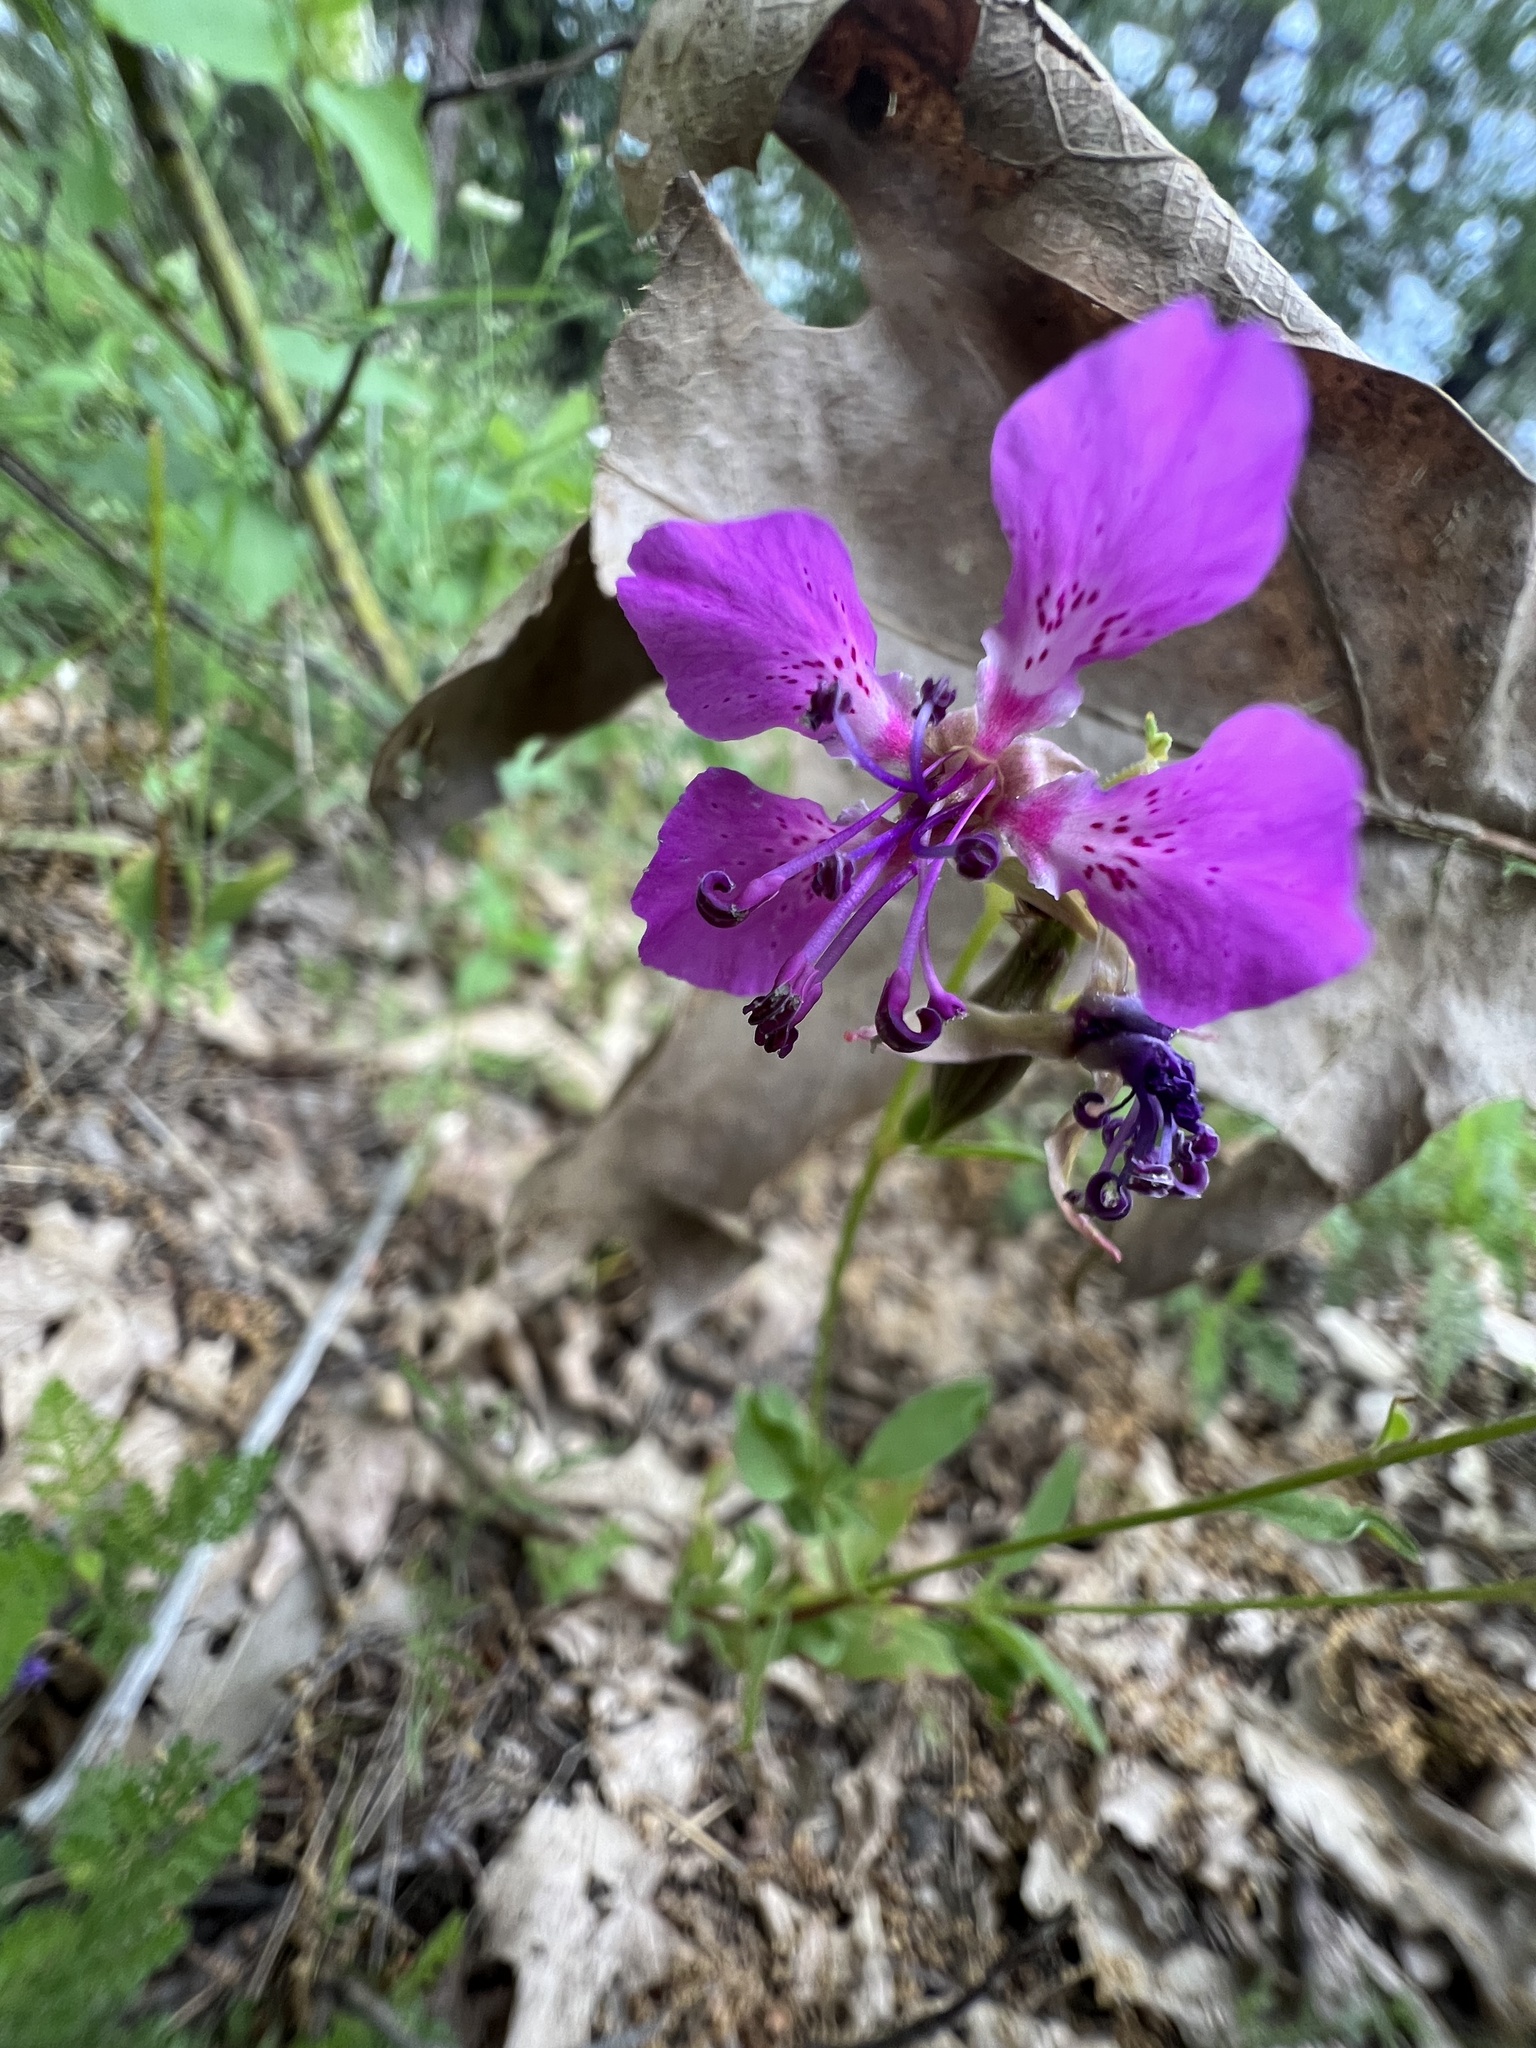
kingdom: Plantae
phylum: Tracheophyta
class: Magnoliopsida
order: Myrtales
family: Onagraceae
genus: Clarkia
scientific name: Clarkia rhomboidea
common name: Broadleaf clarkia
